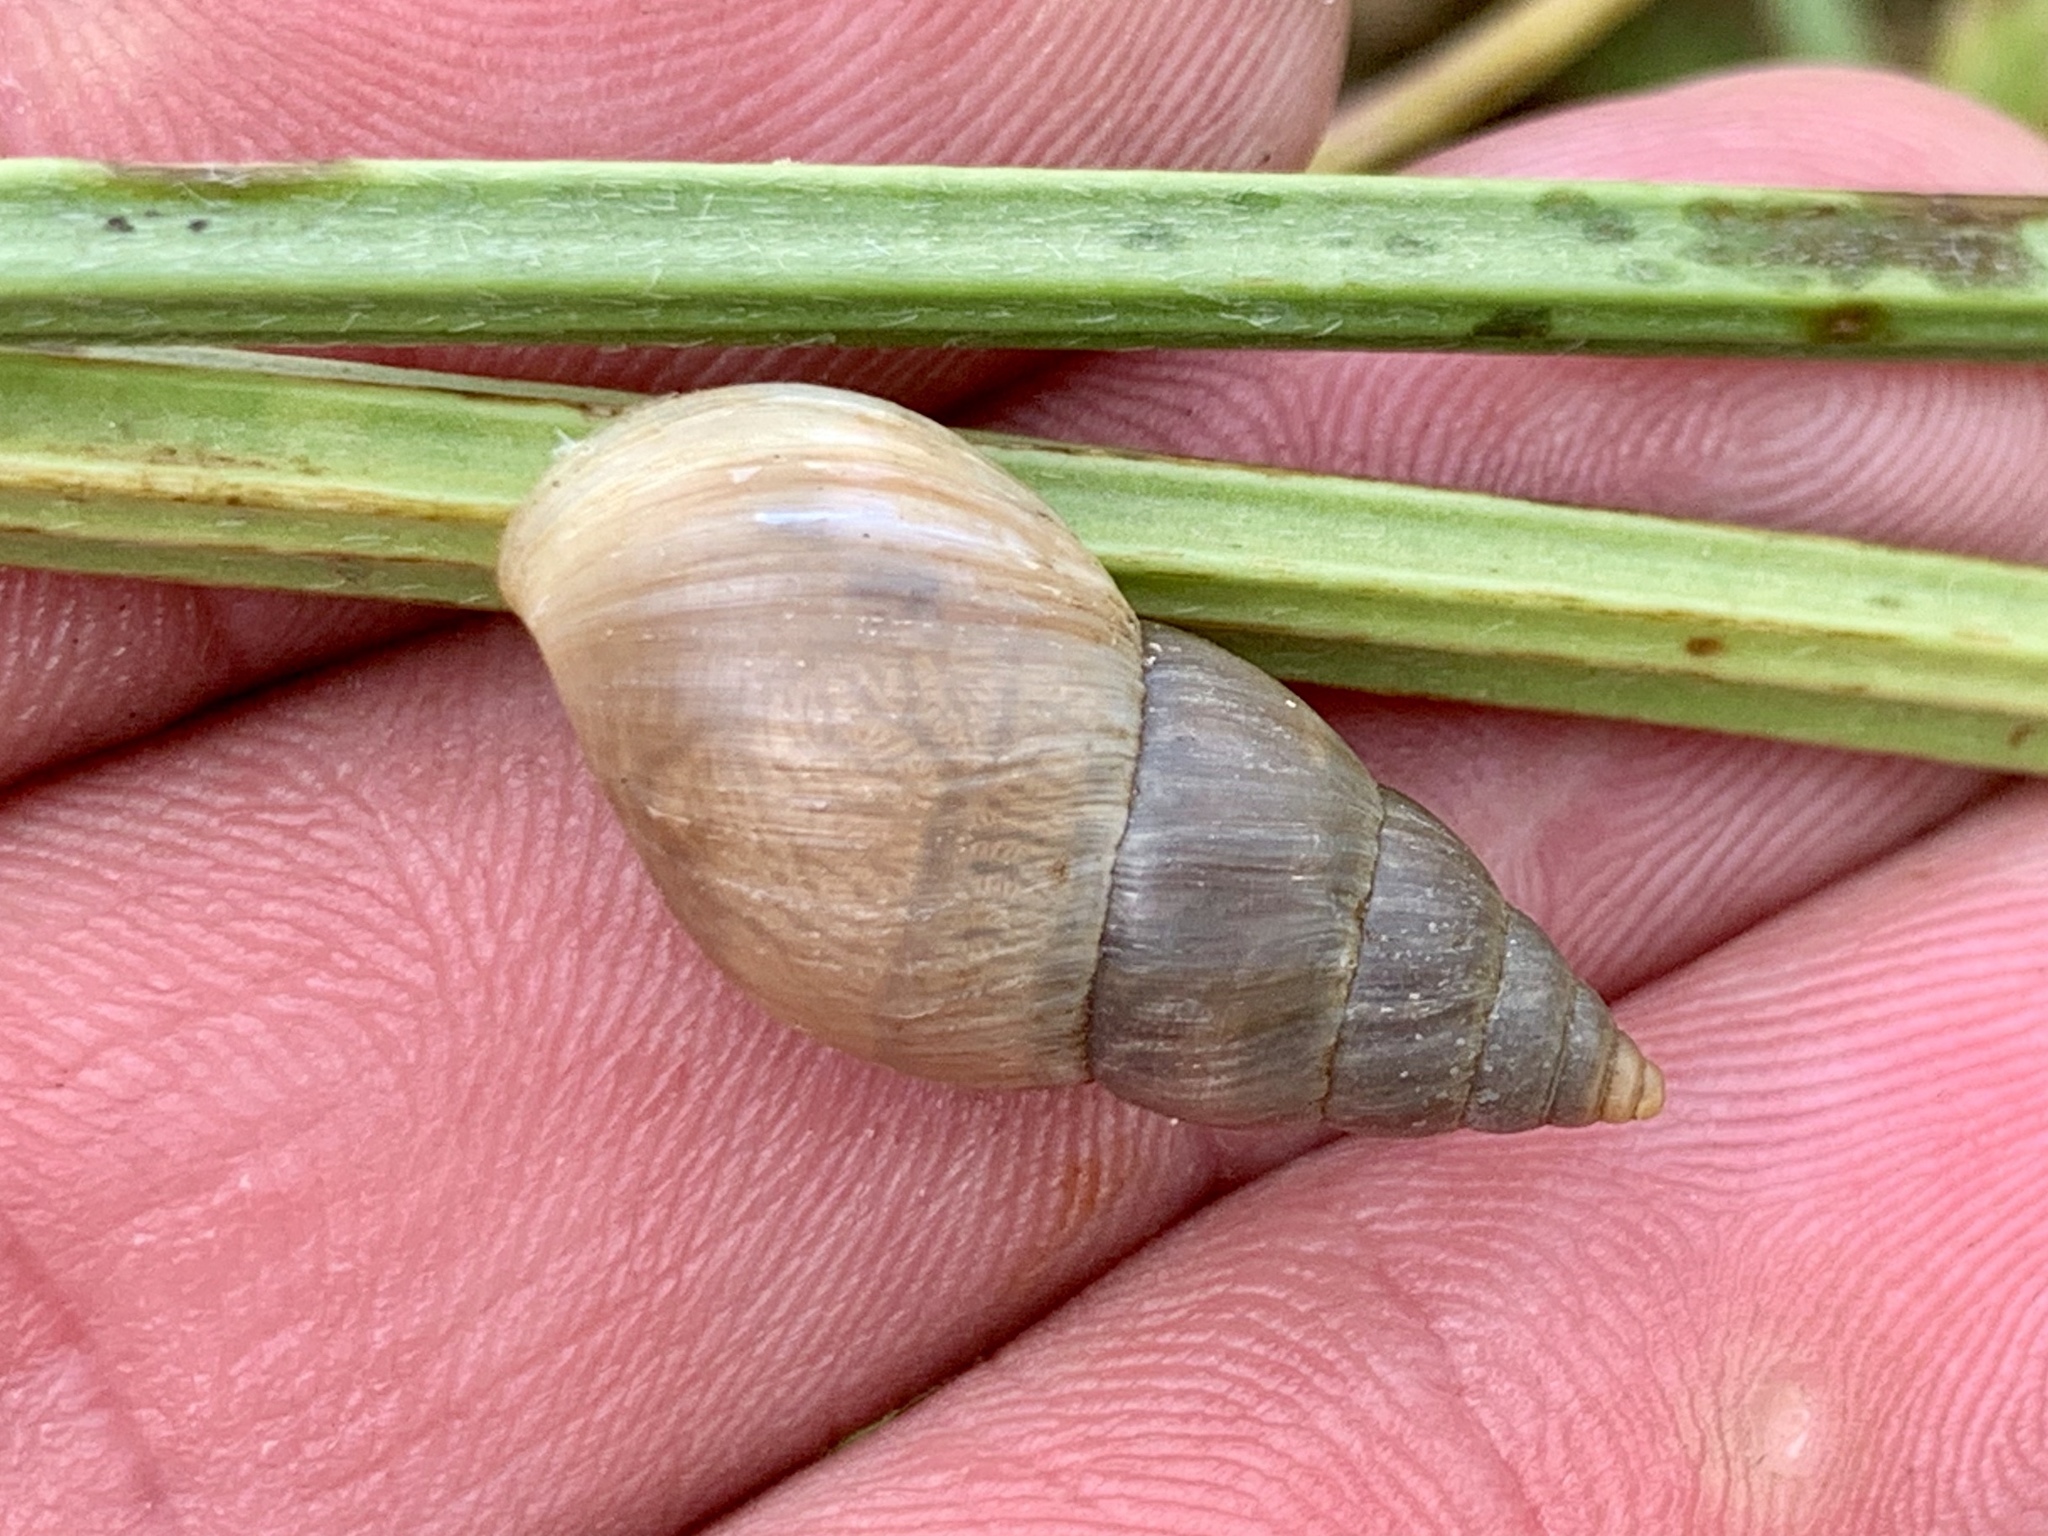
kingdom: Animalia
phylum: Mollusca
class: Gastropoda
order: Stylommatophora
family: Bulimulidae
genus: Bulimulus
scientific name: Bulimulus bonariensis
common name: Snail
